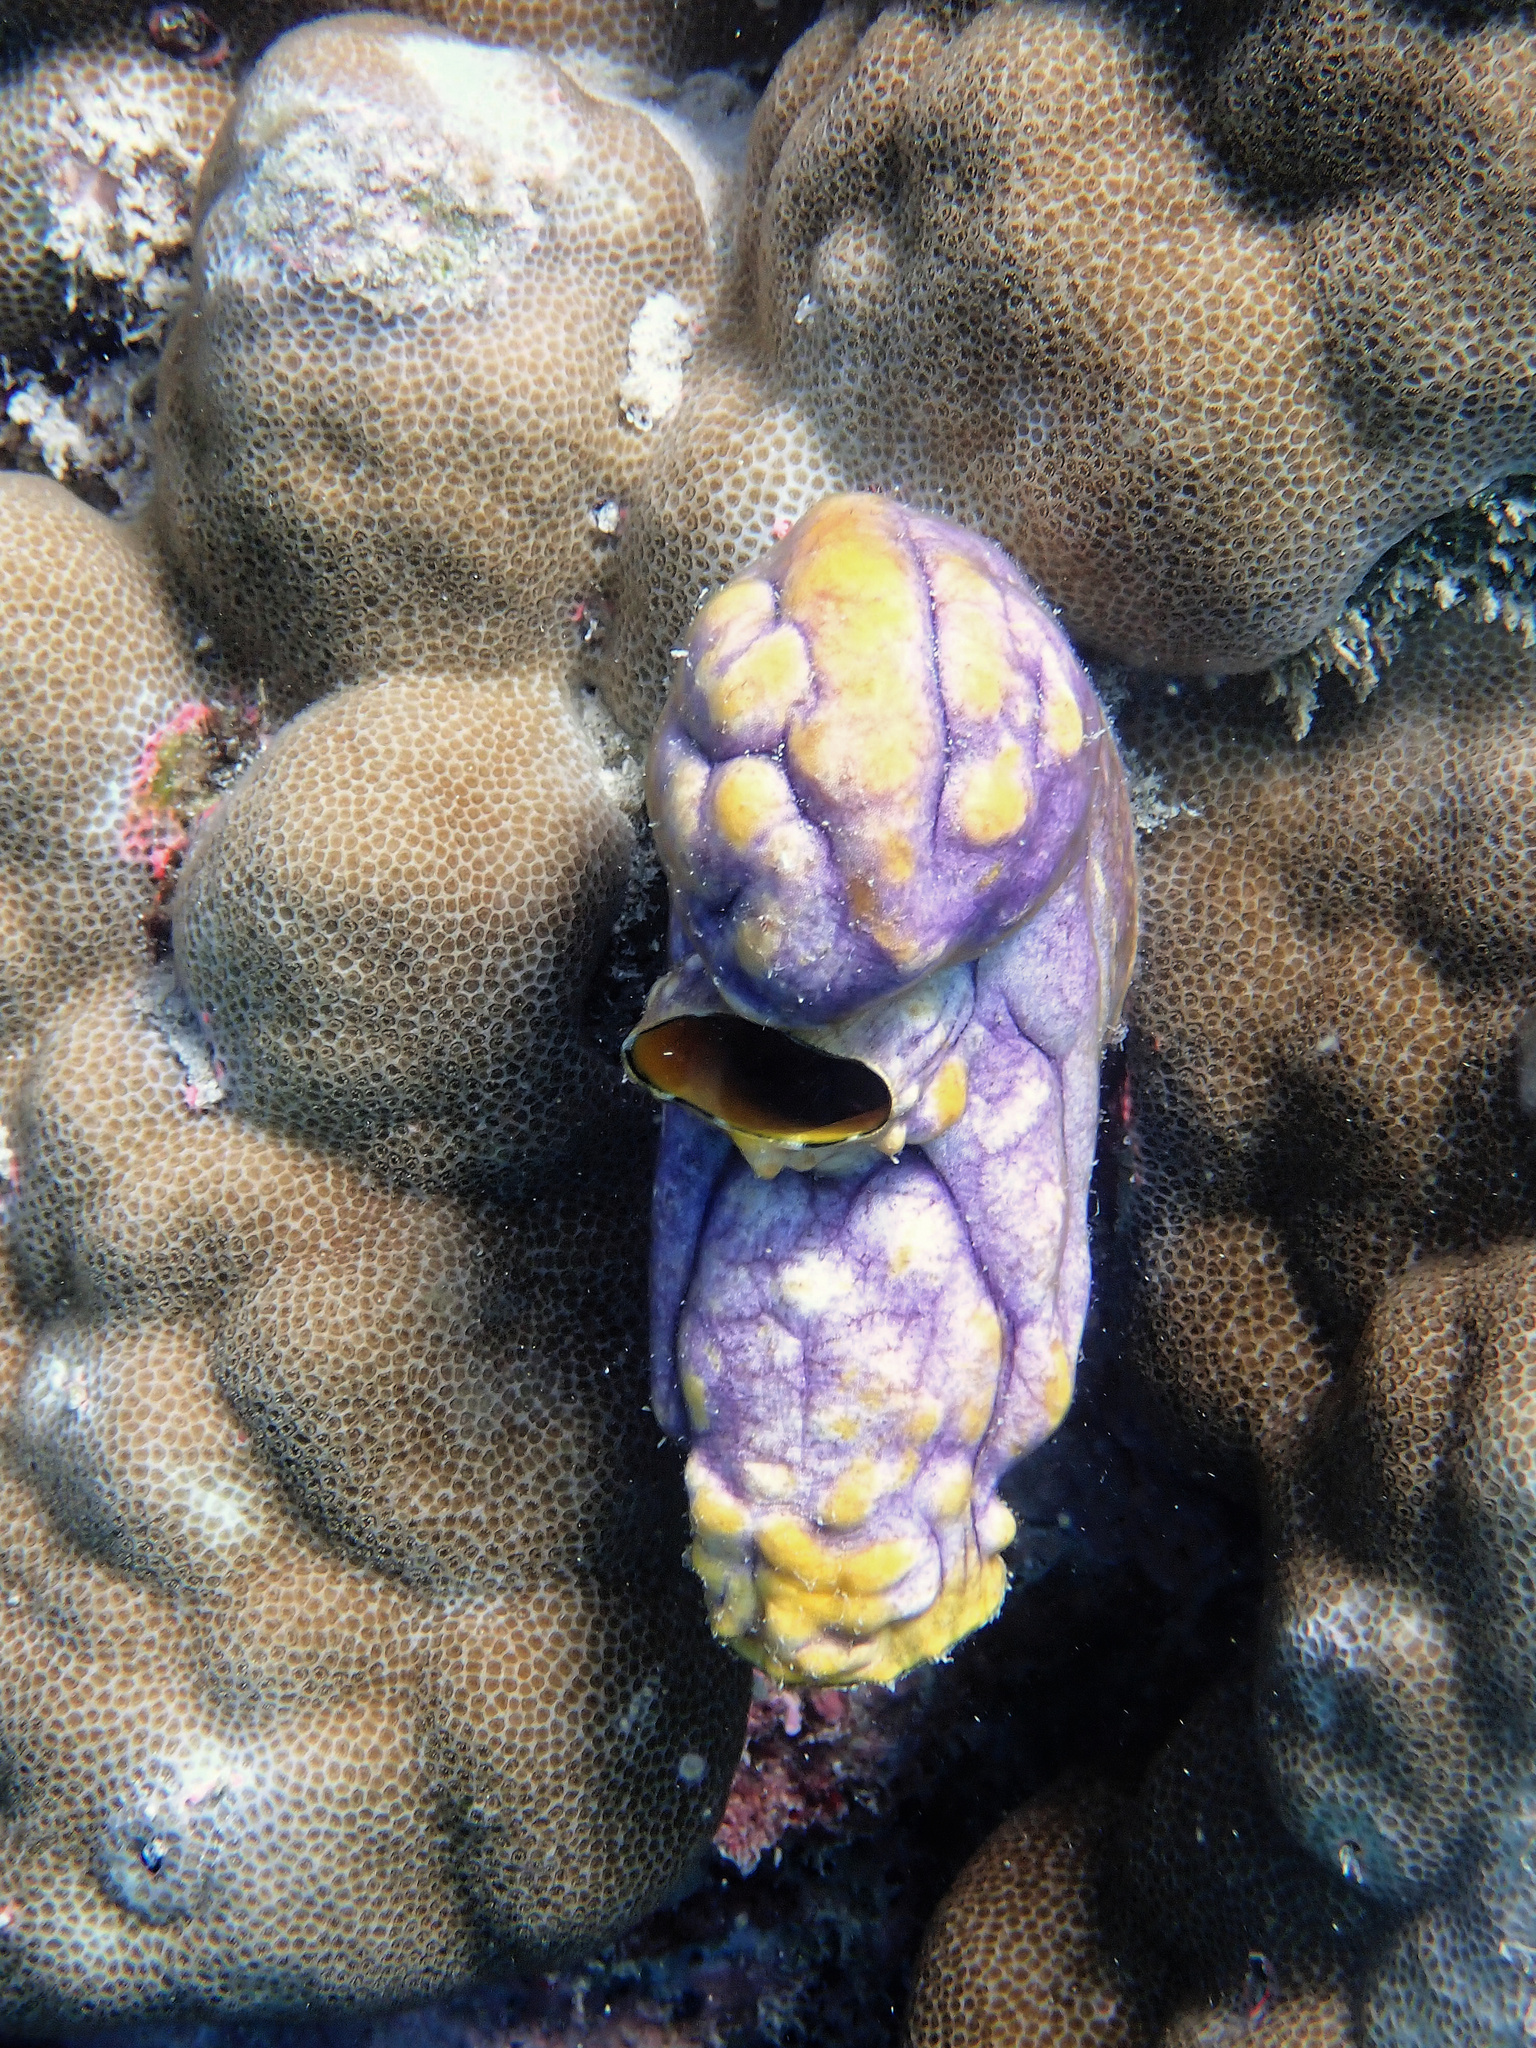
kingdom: Animalia
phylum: Chordata
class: Ascidiacea
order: Stolidobranchia
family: Styelidae
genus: Polycarpa
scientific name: Polycarpa aurata
